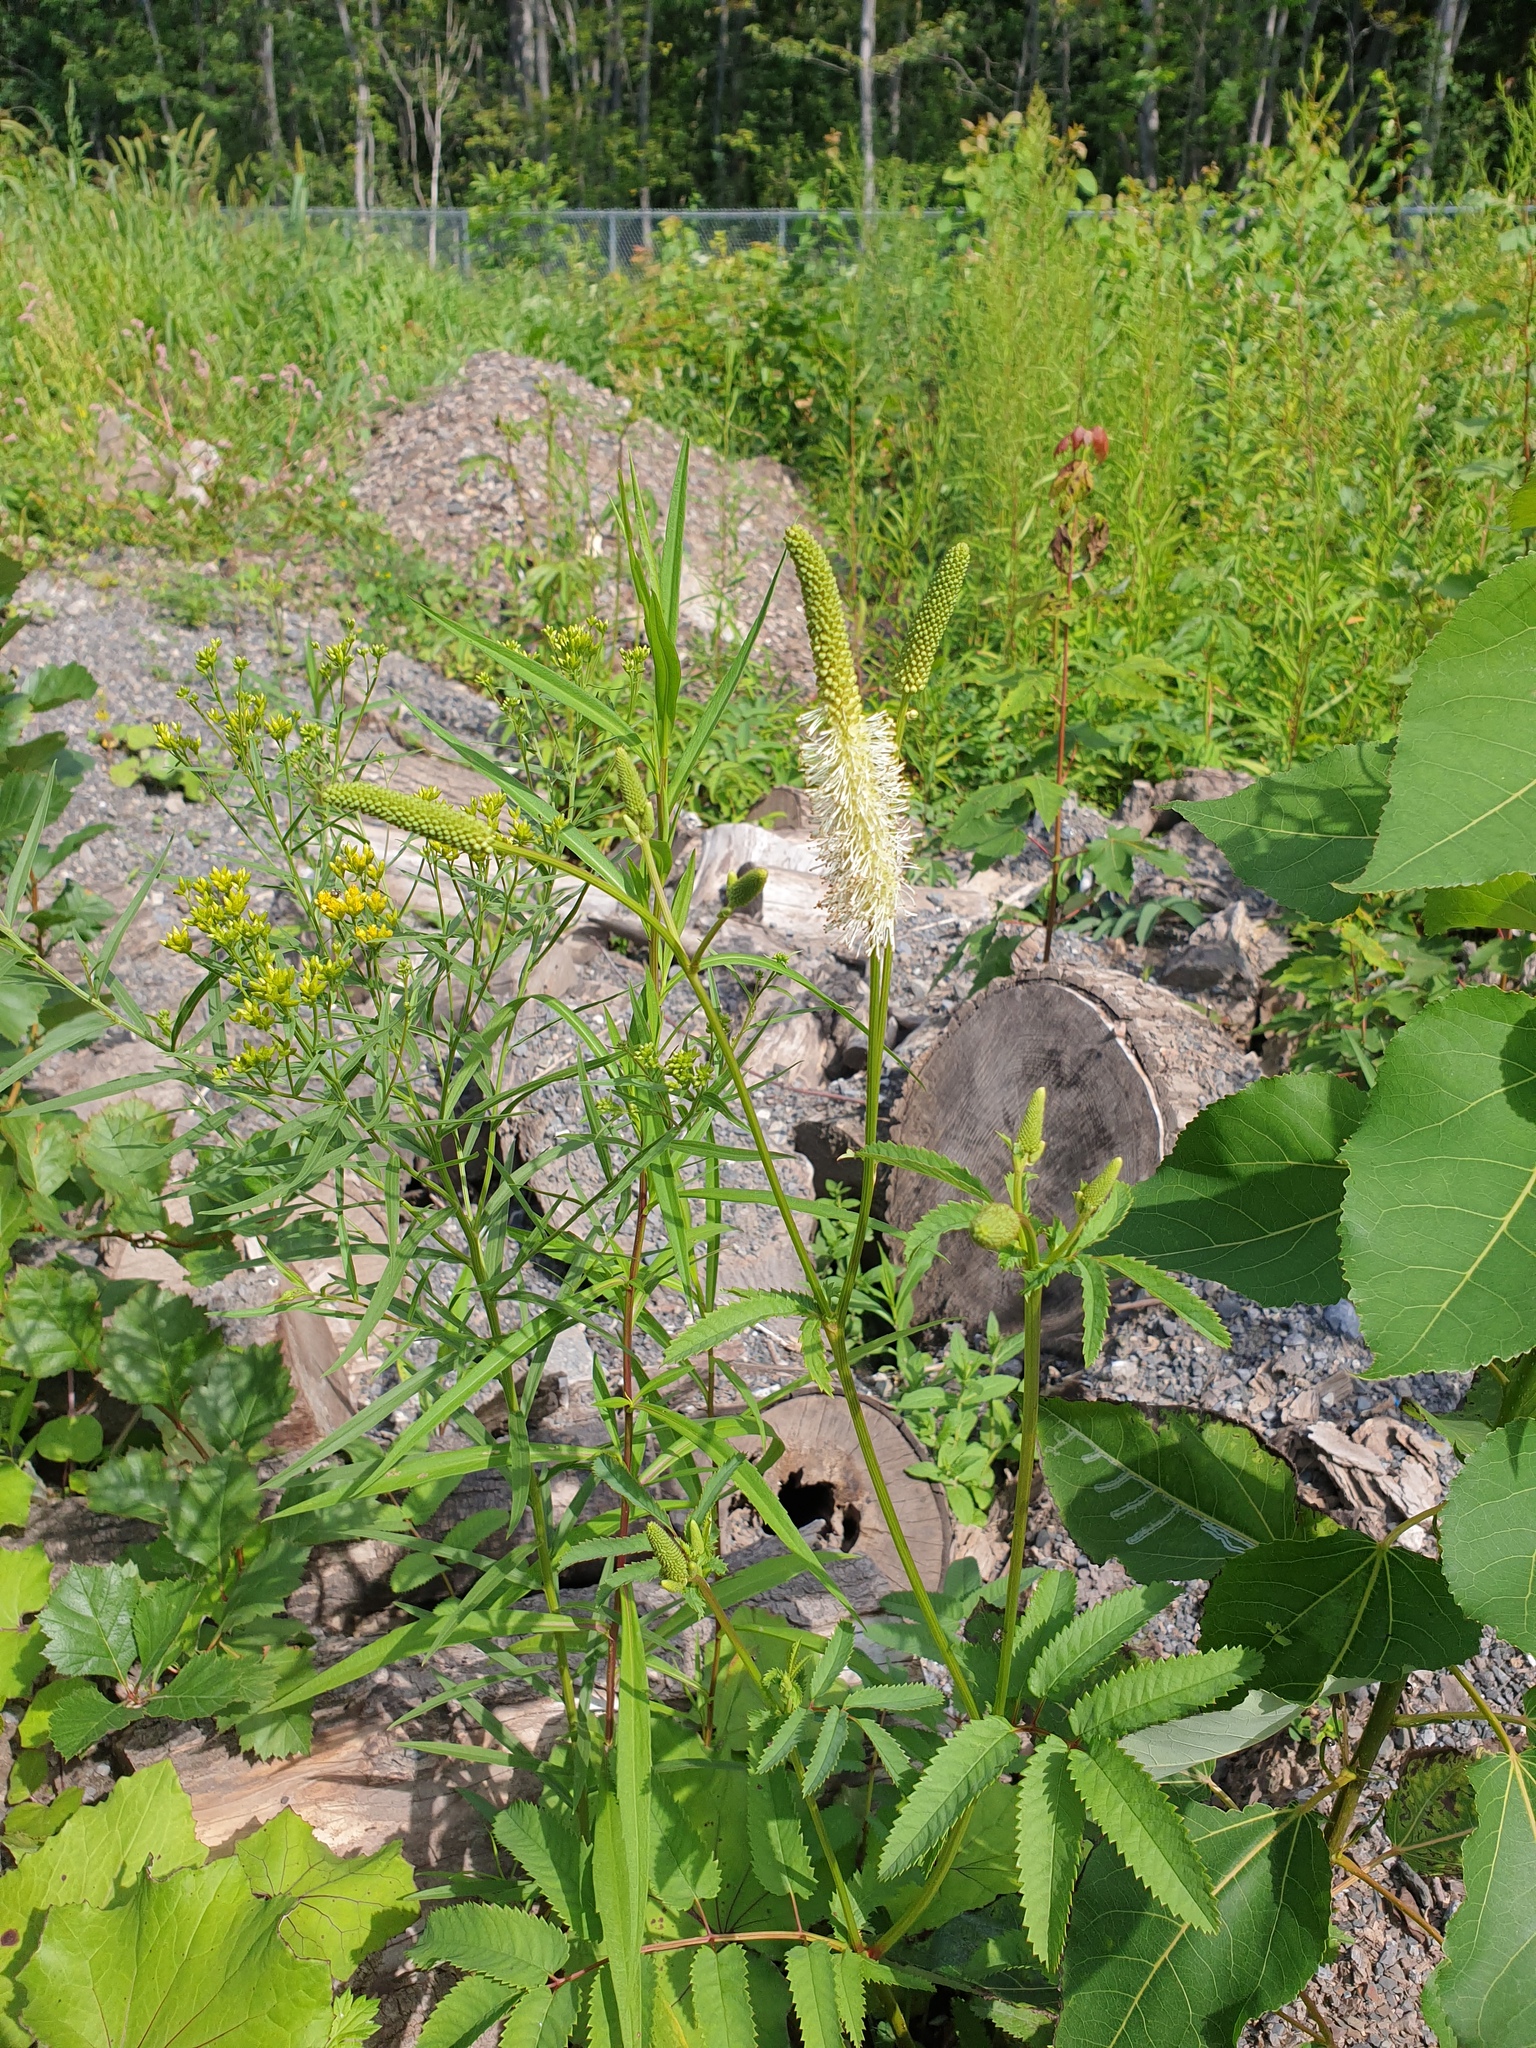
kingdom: Plantae
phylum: Tracheophyta
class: Magnoliopsida
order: Rosales
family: Rosaceae
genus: Sanguisorba
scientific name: Sanguisorba canadensis
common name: White burnet
